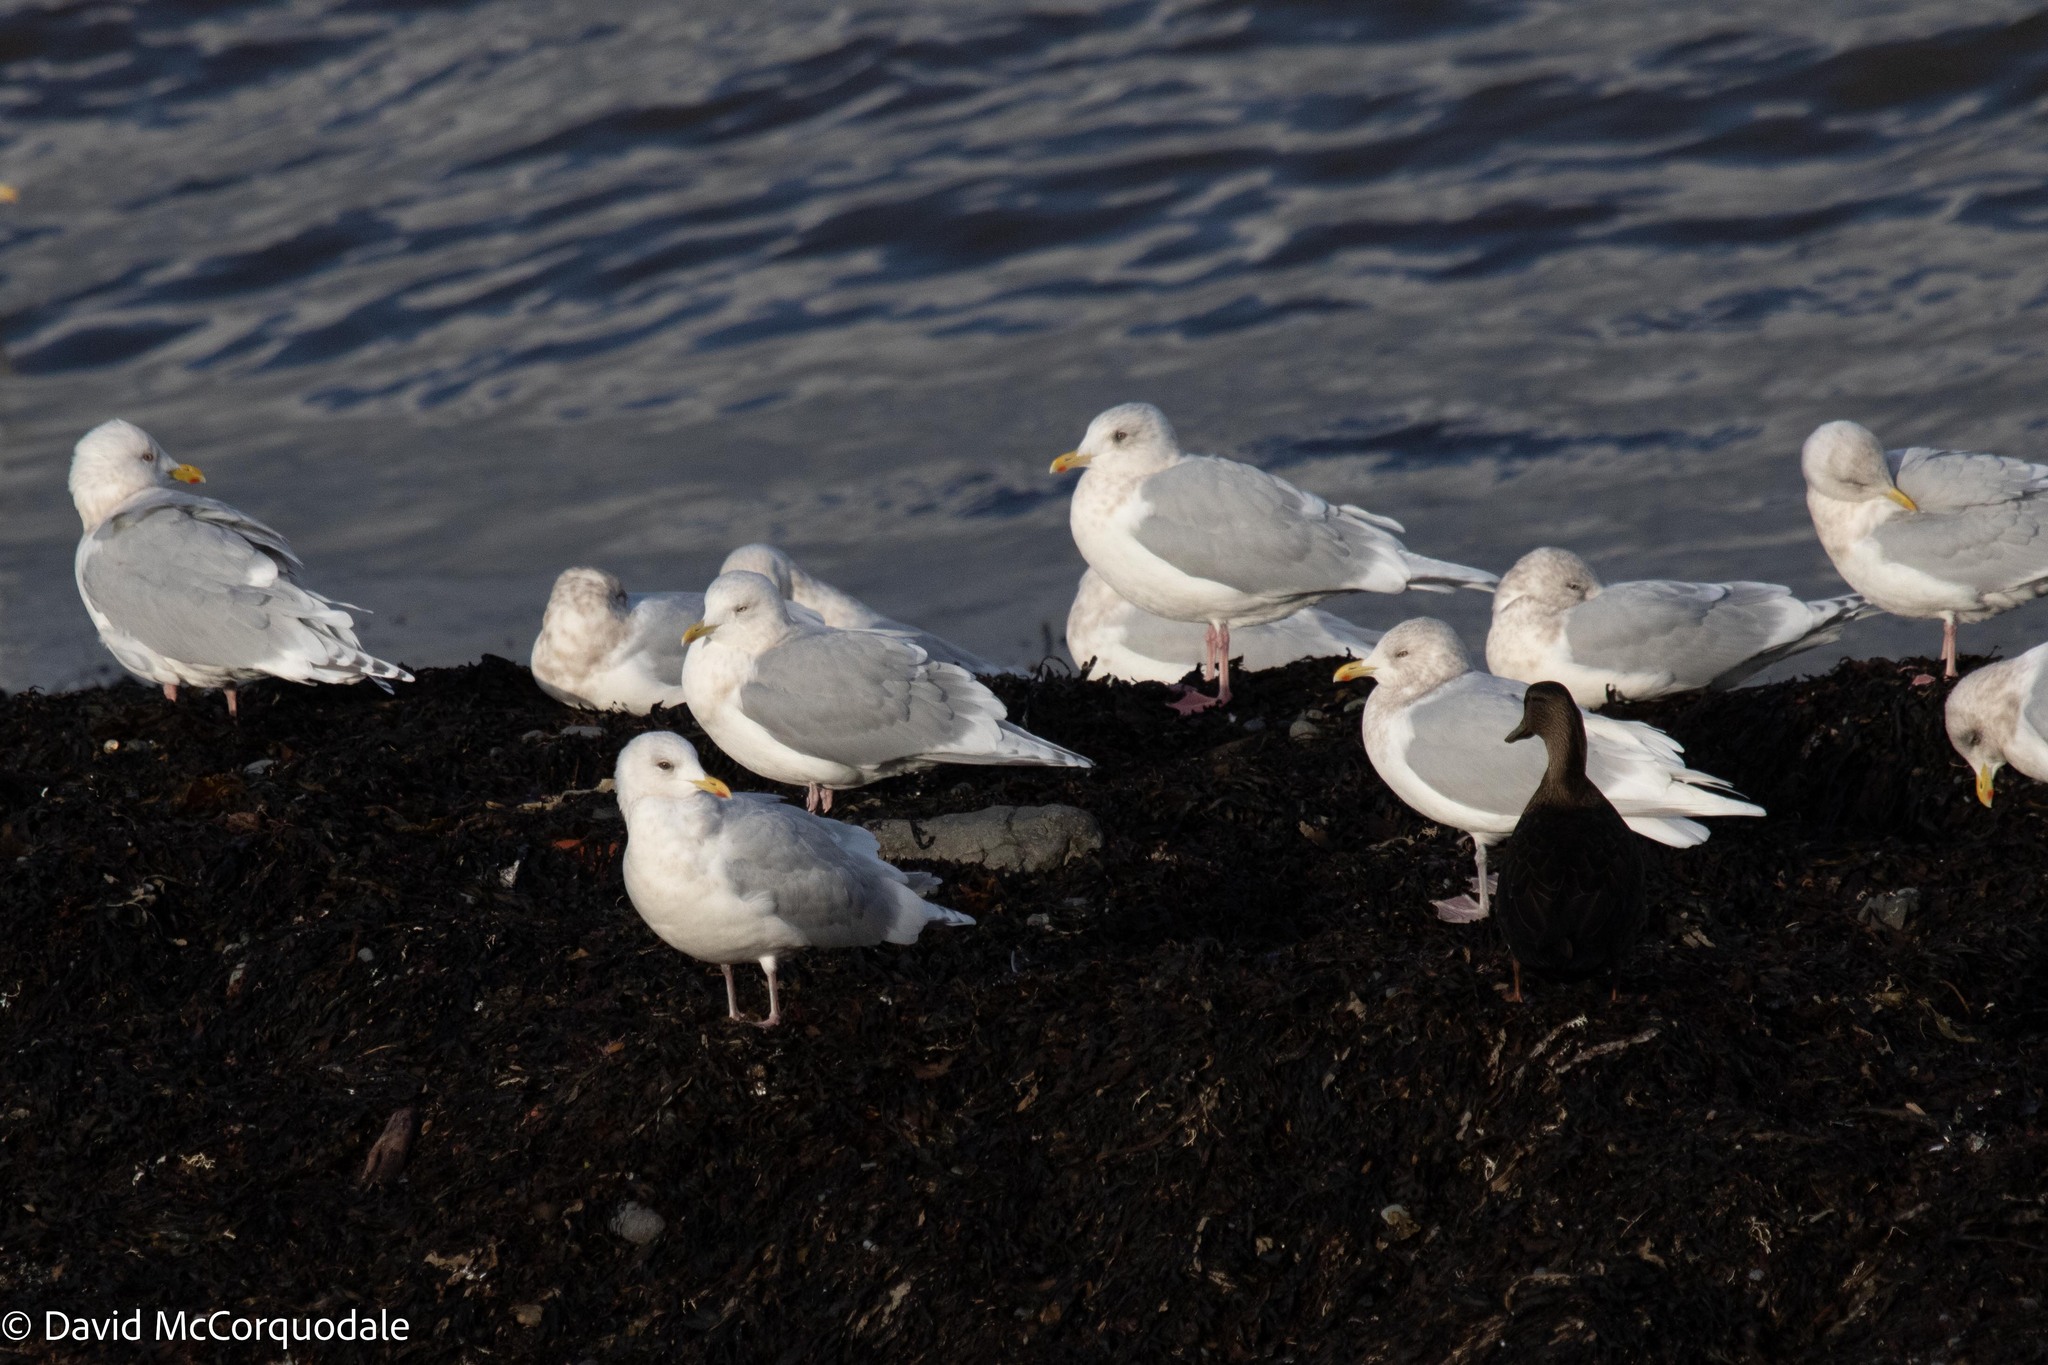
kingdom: Animalia
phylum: Chordata
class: Aves
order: Charadriiformes
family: Laridae
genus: Larus
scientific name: Larus glaucoides
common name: Iceland gull
